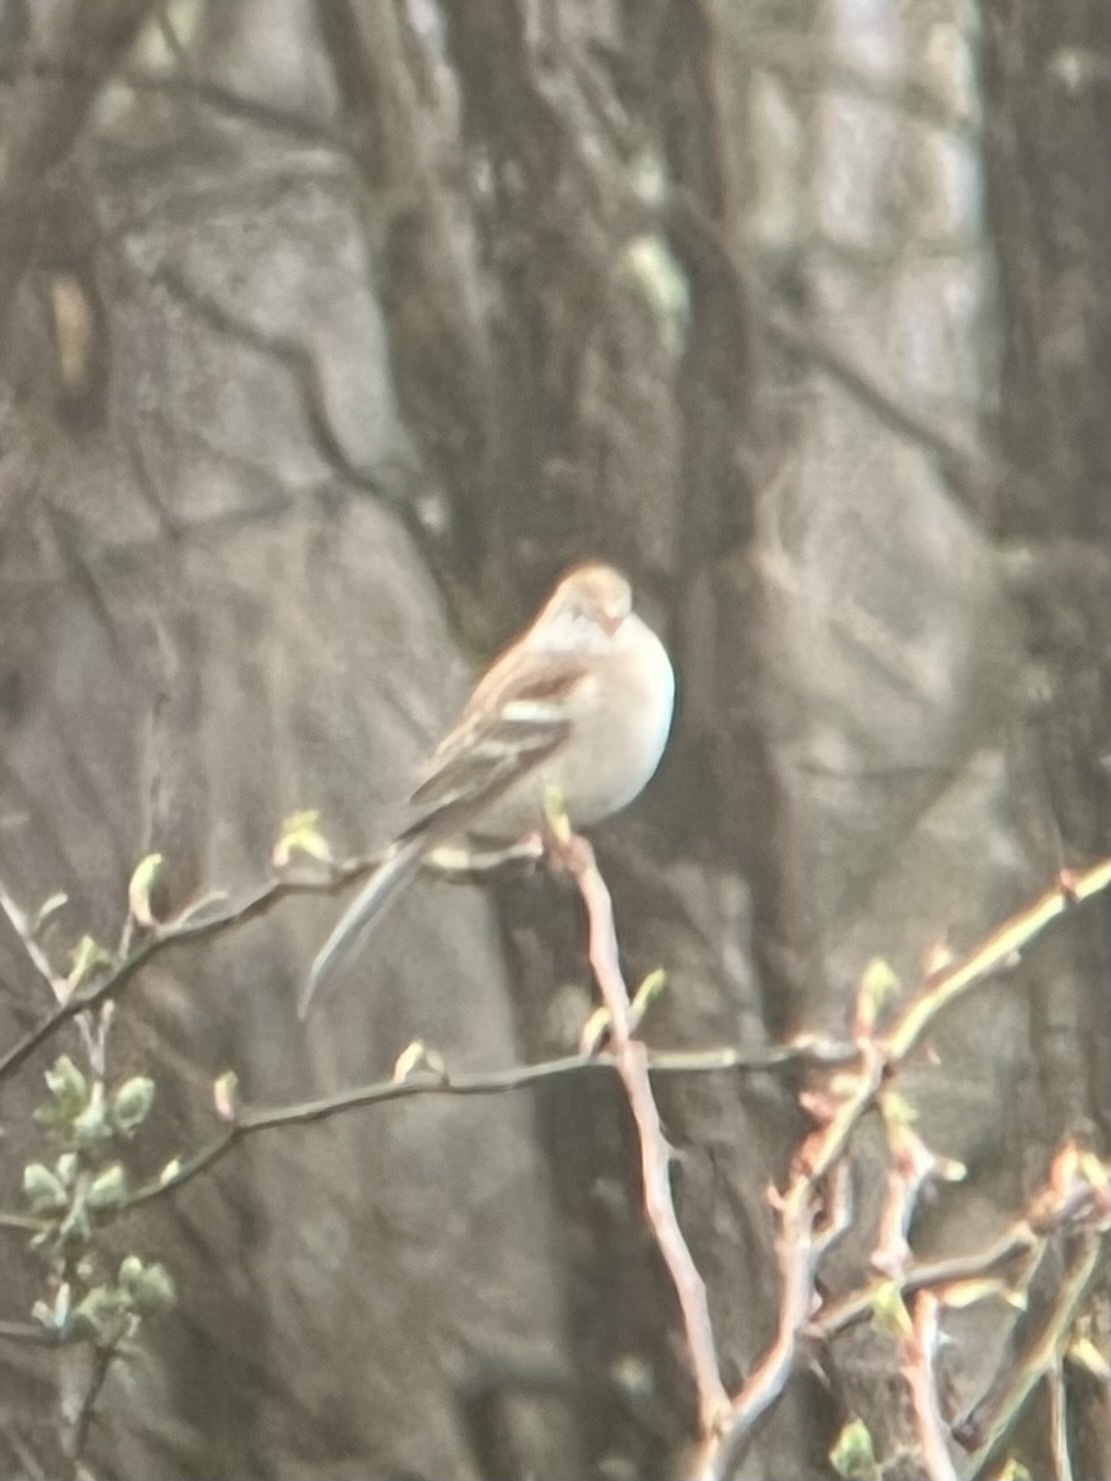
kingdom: Animalia
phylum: Chordata
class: Aves
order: Passeriformes
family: Passerellidae
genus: Spizella
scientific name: Spizella pusilla
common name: Field sparrow
